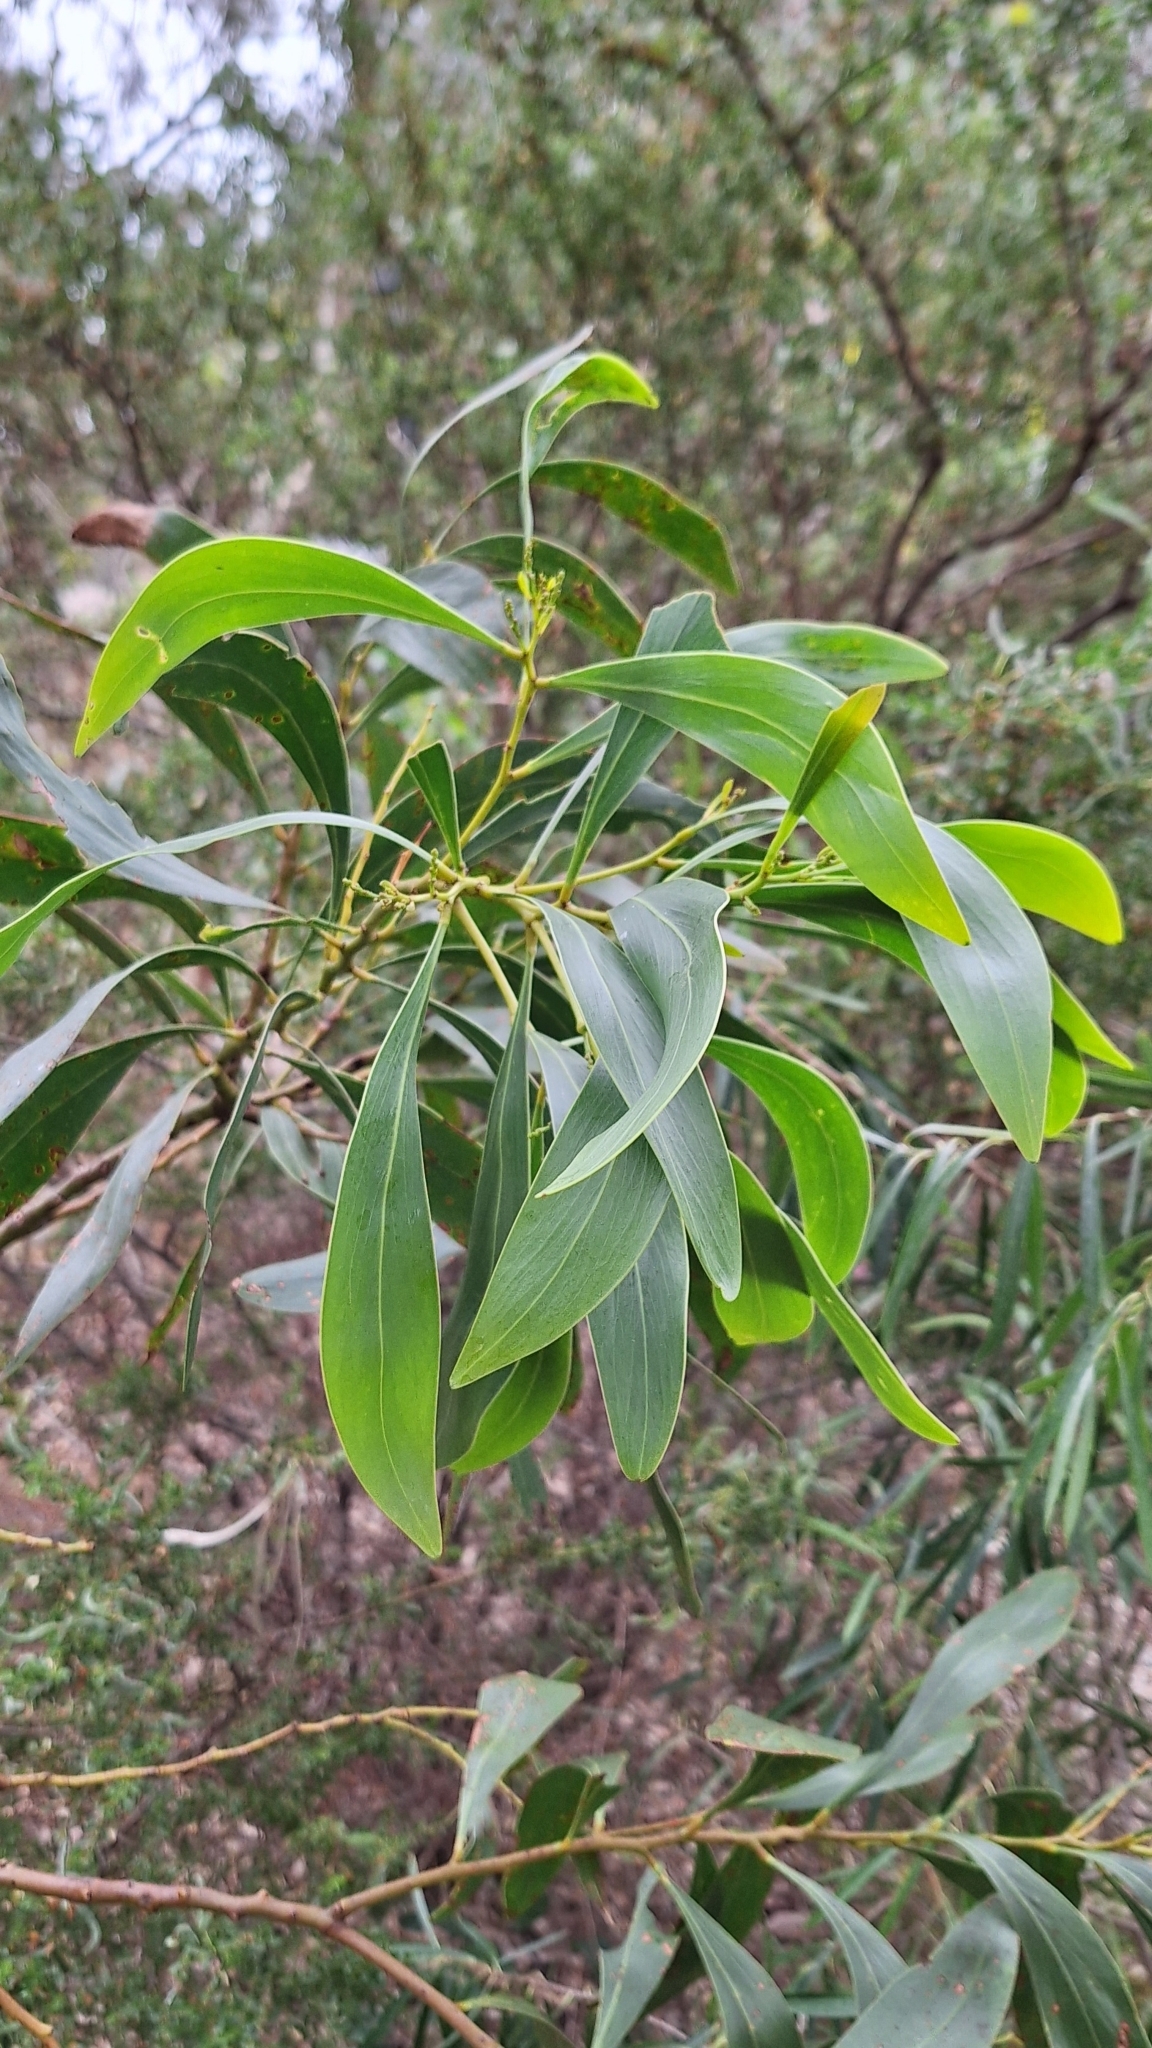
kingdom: Plantae
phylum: Tracheophyta
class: Magnoliopsida
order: Fabales
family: Fabaceae
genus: Acacia
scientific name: Acacia pycnantha
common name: Golden wattle
